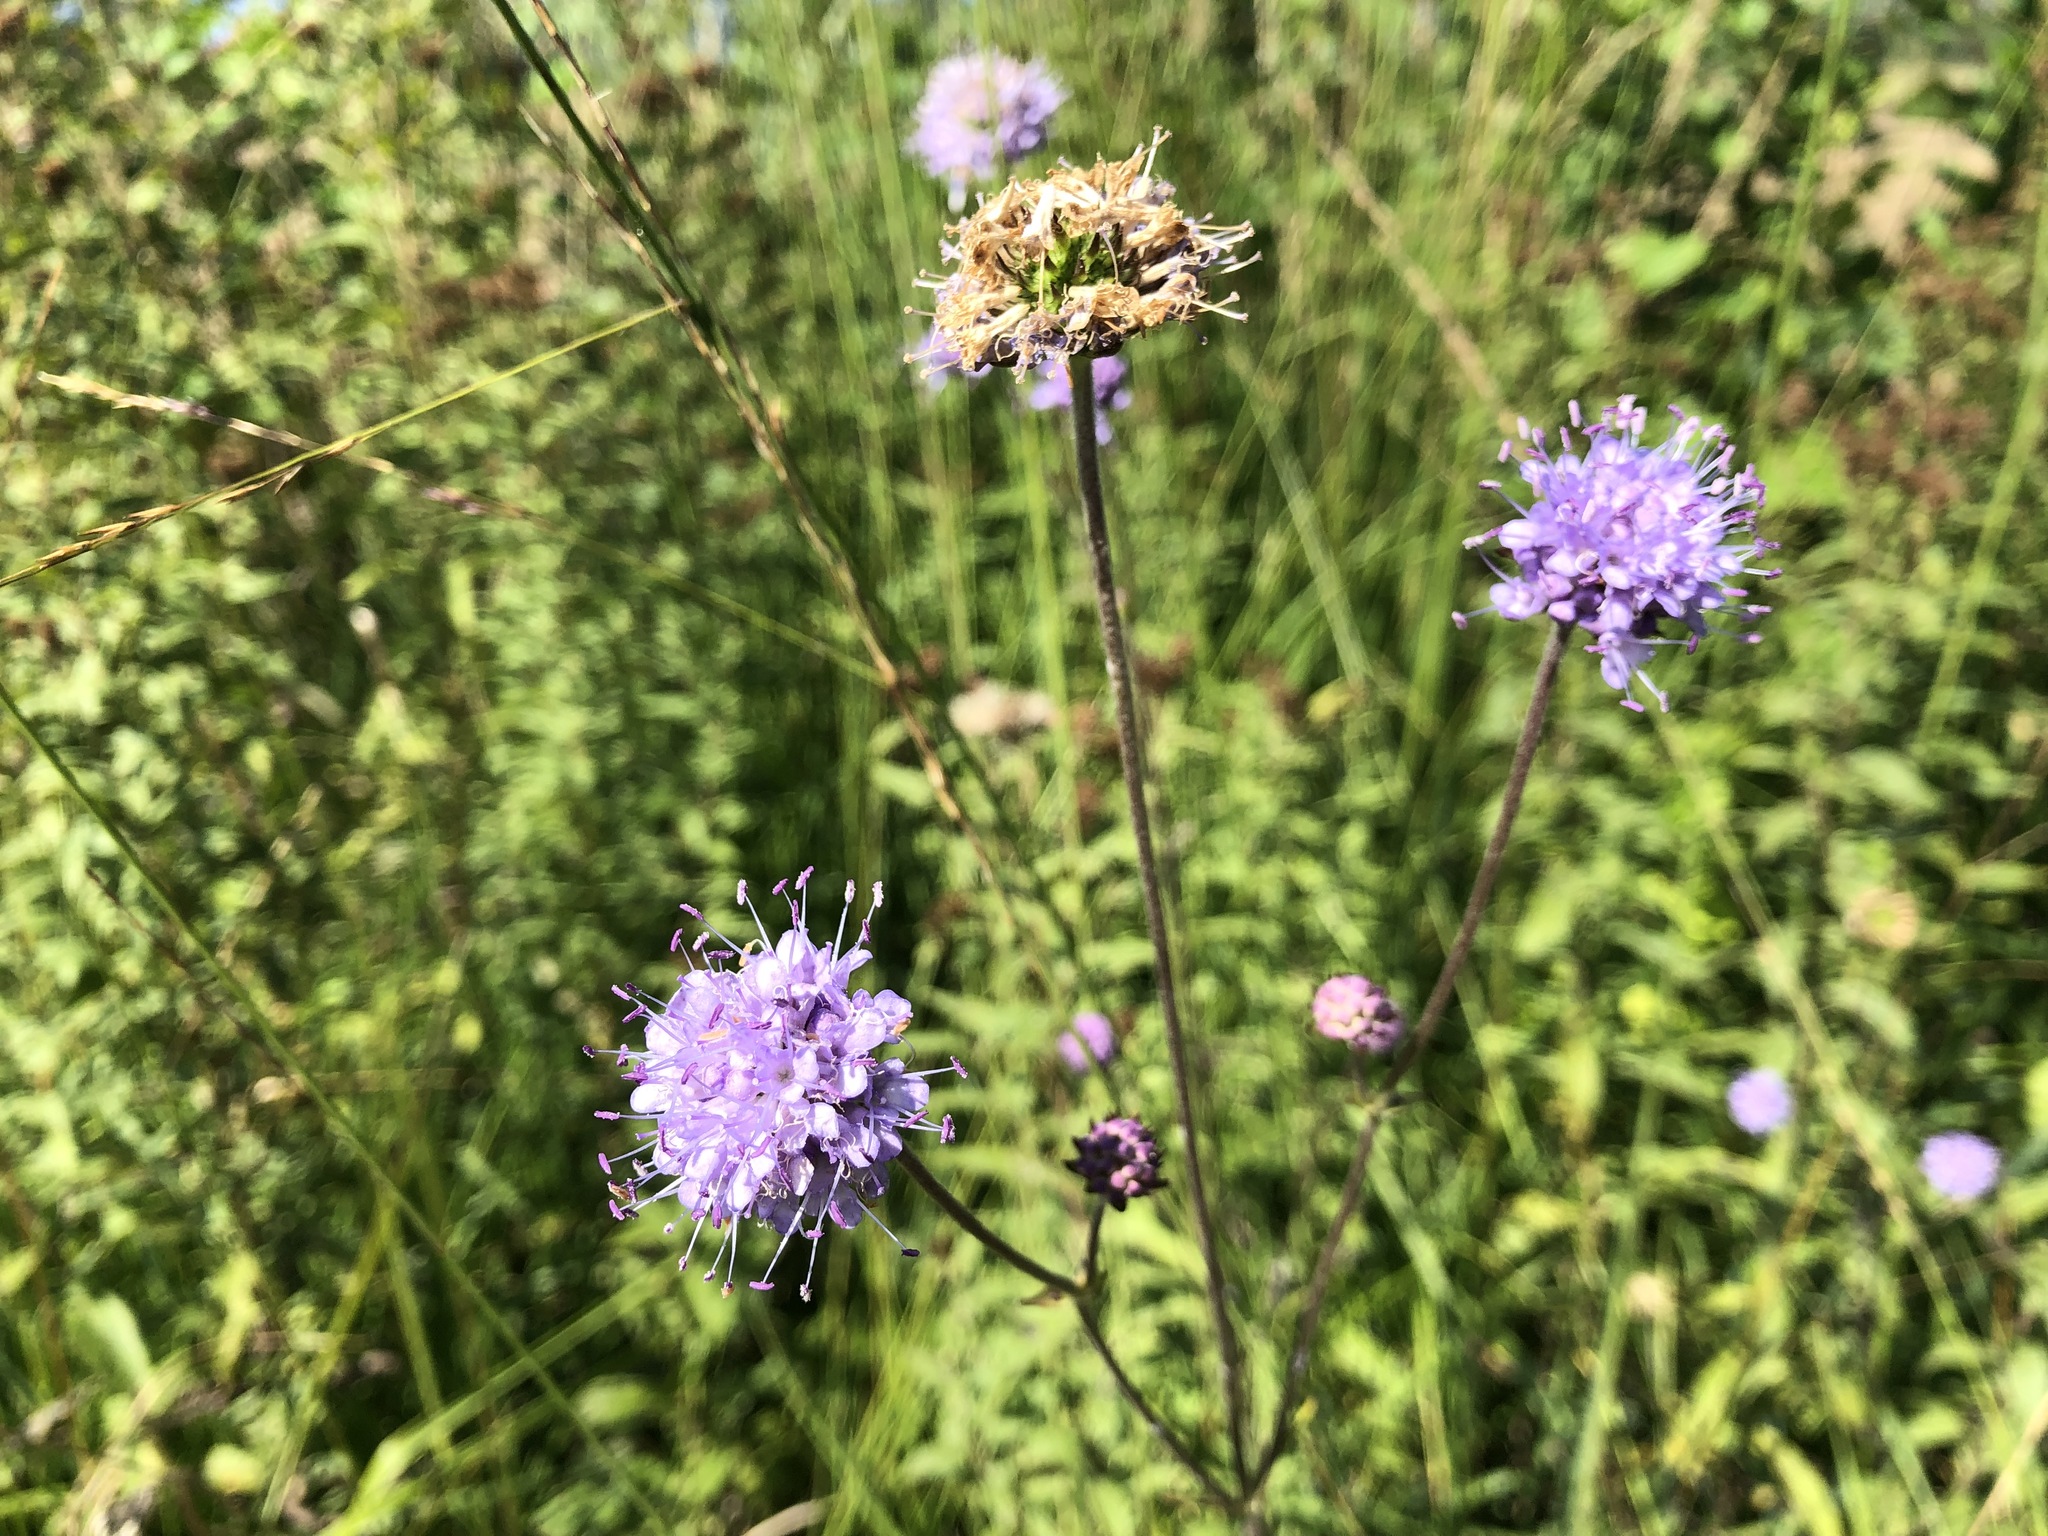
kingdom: Plantae
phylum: Tracheophyta
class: Magnoliopsida
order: Dipsacales
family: Caprifoliaceae
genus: Succisa
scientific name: Succisa pratensis
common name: Devil's-bit
